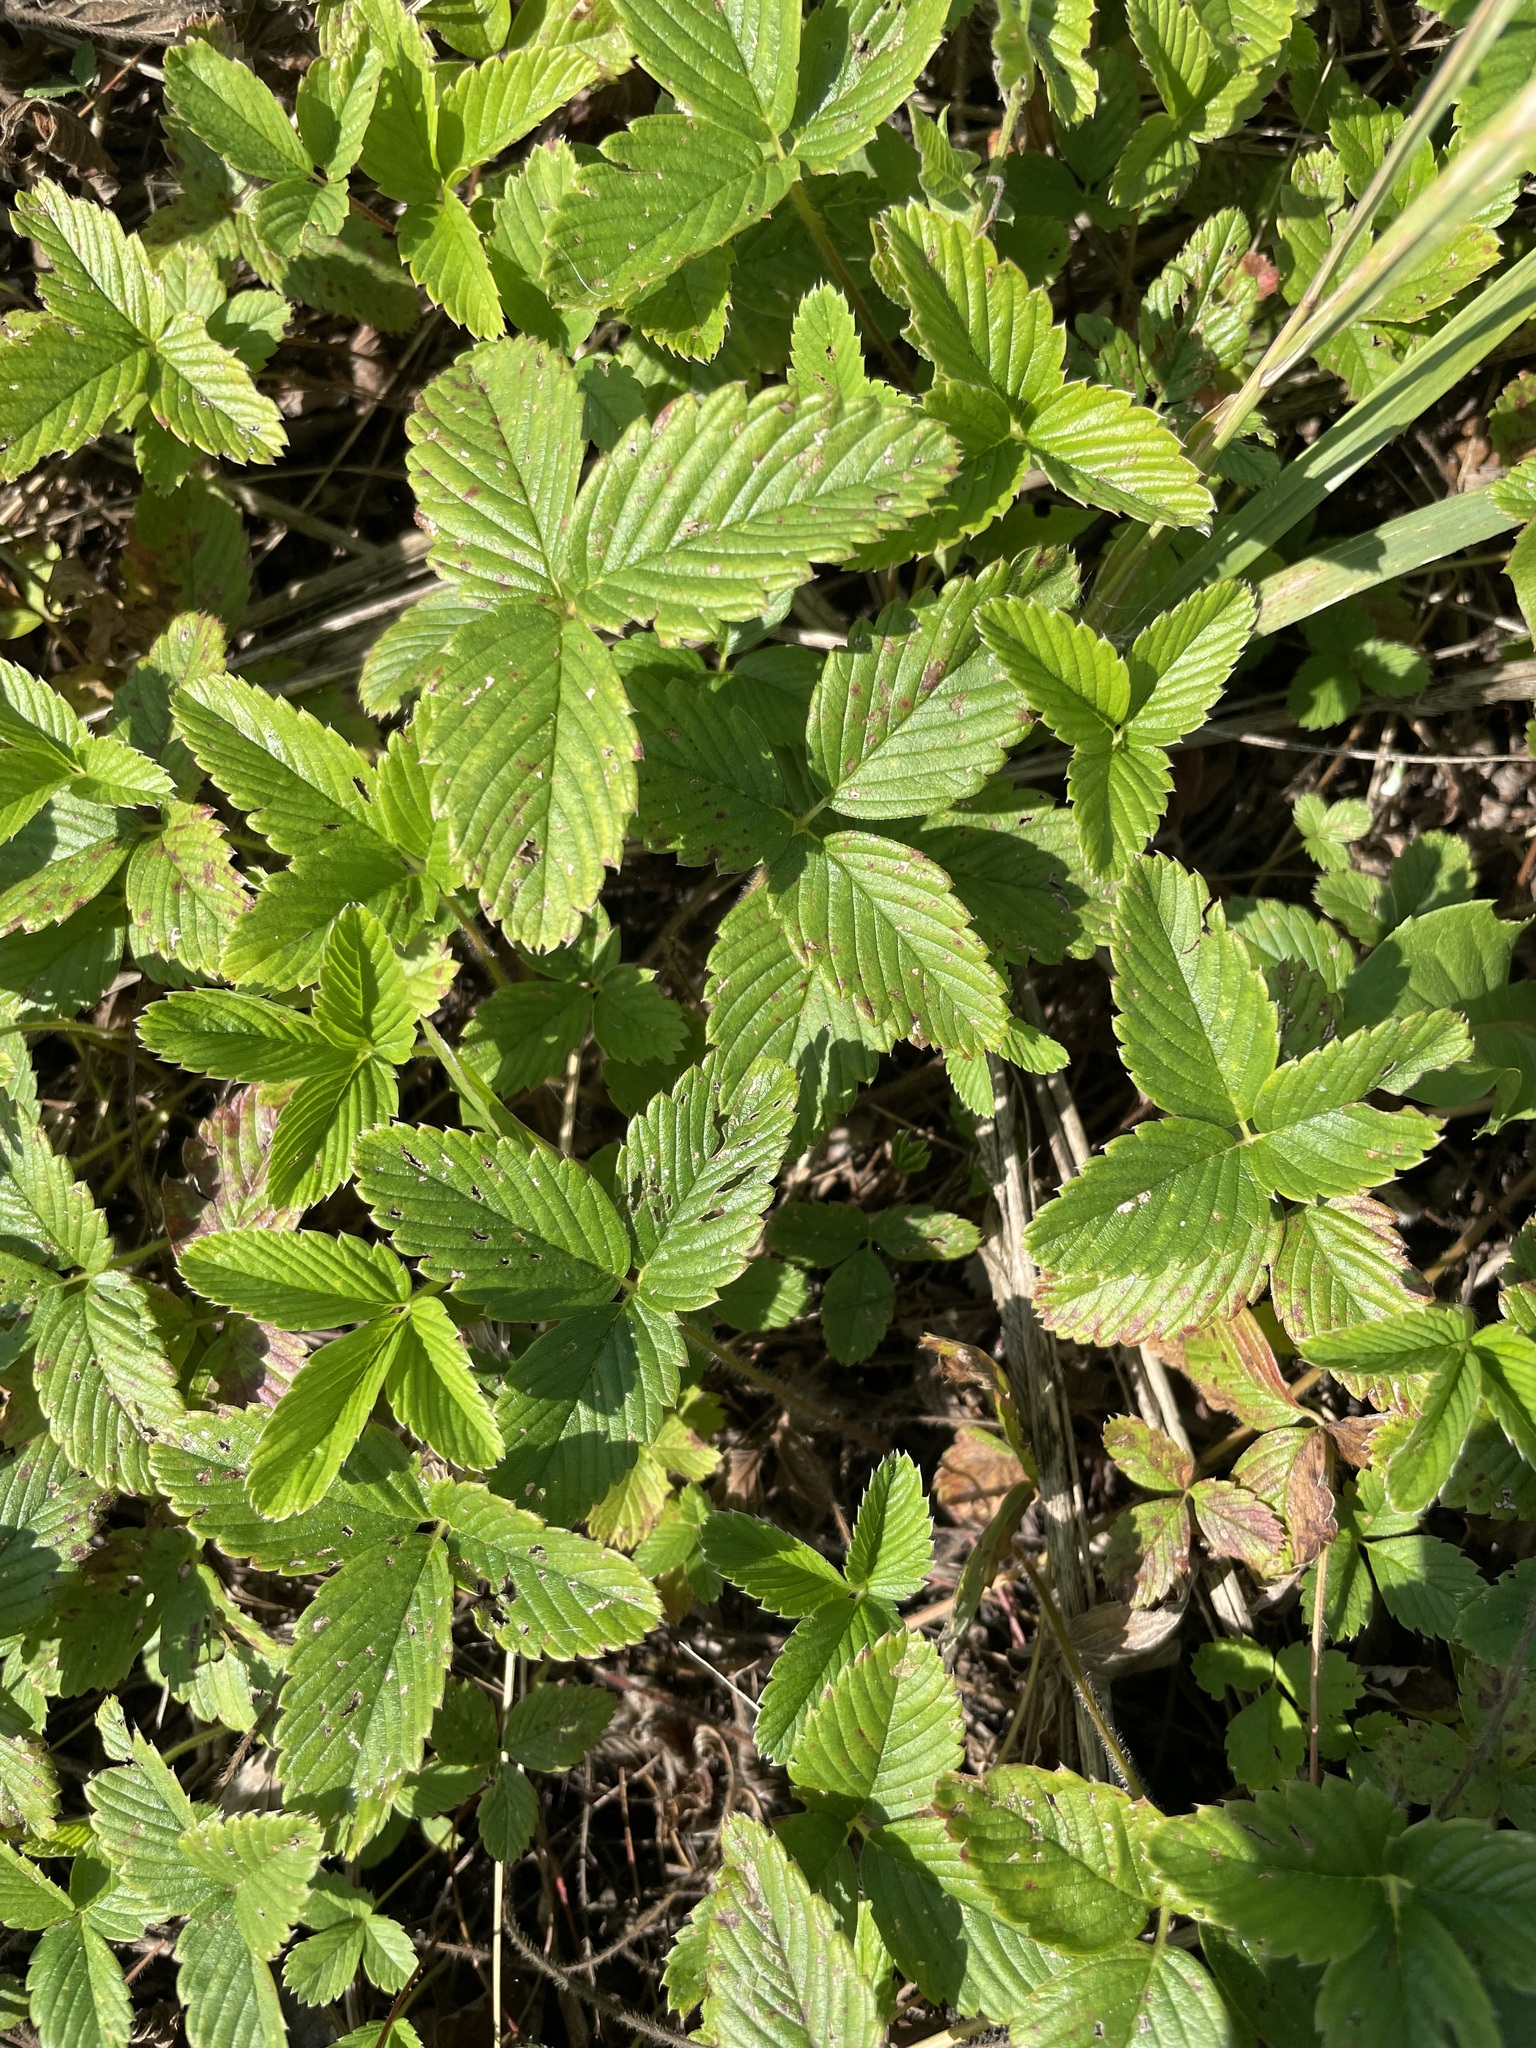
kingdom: Plantae
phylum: Tracheophyta
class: Magnoliopsida
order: Rosales
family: Rosaceae
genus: Fragaria
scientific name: Fragaria viridis
